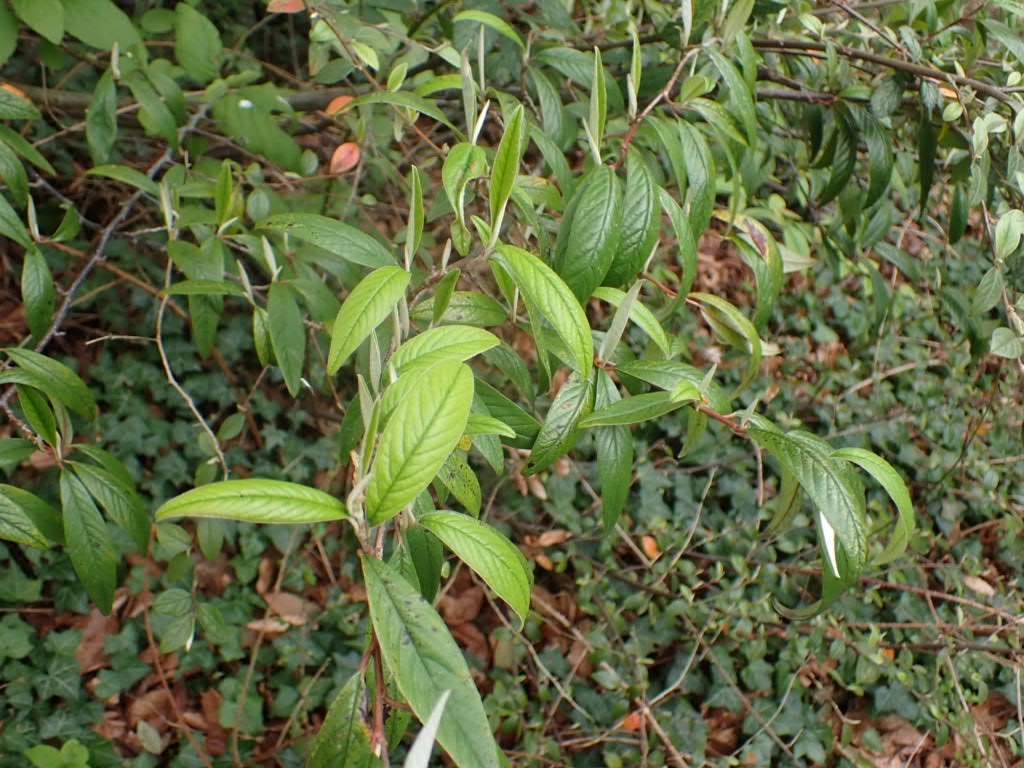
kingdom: Plantae
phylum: Tracheophyta
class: Magnoliopsida
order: Rosales
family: Rosaceae
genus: Cotoneaster
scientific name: Cotoneaster salicifolius
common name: Willow-leaved cotoneaster
